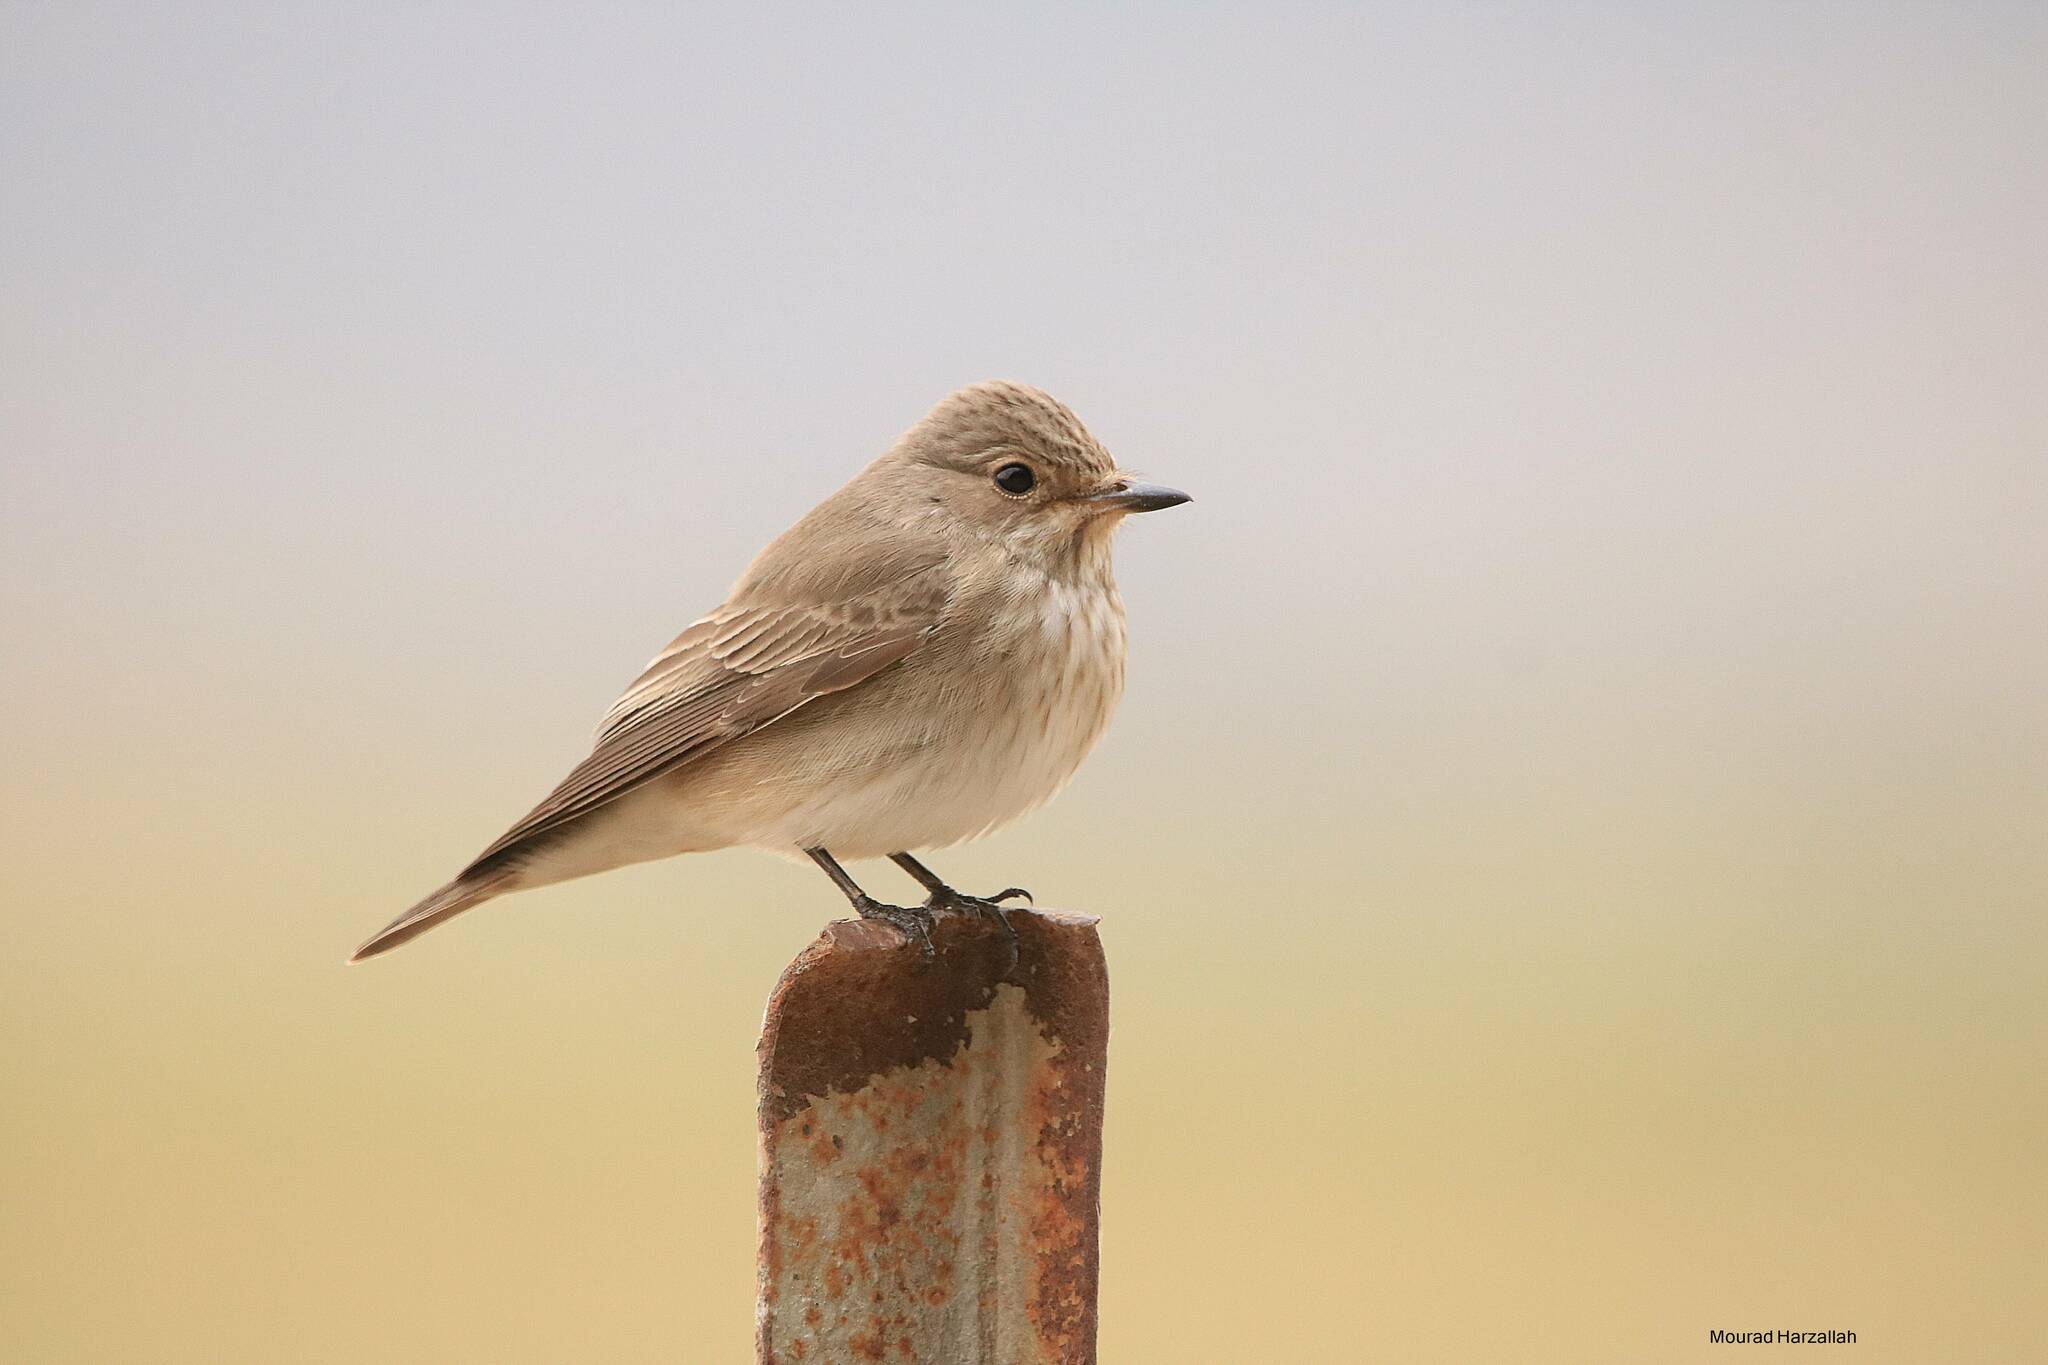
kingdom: Animalia
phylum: Chordata
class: Aves
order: Passeriformes
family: Muscicapidae
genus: Muscicapa
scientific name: Muscicapa striata
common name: Spotted flycatcher
